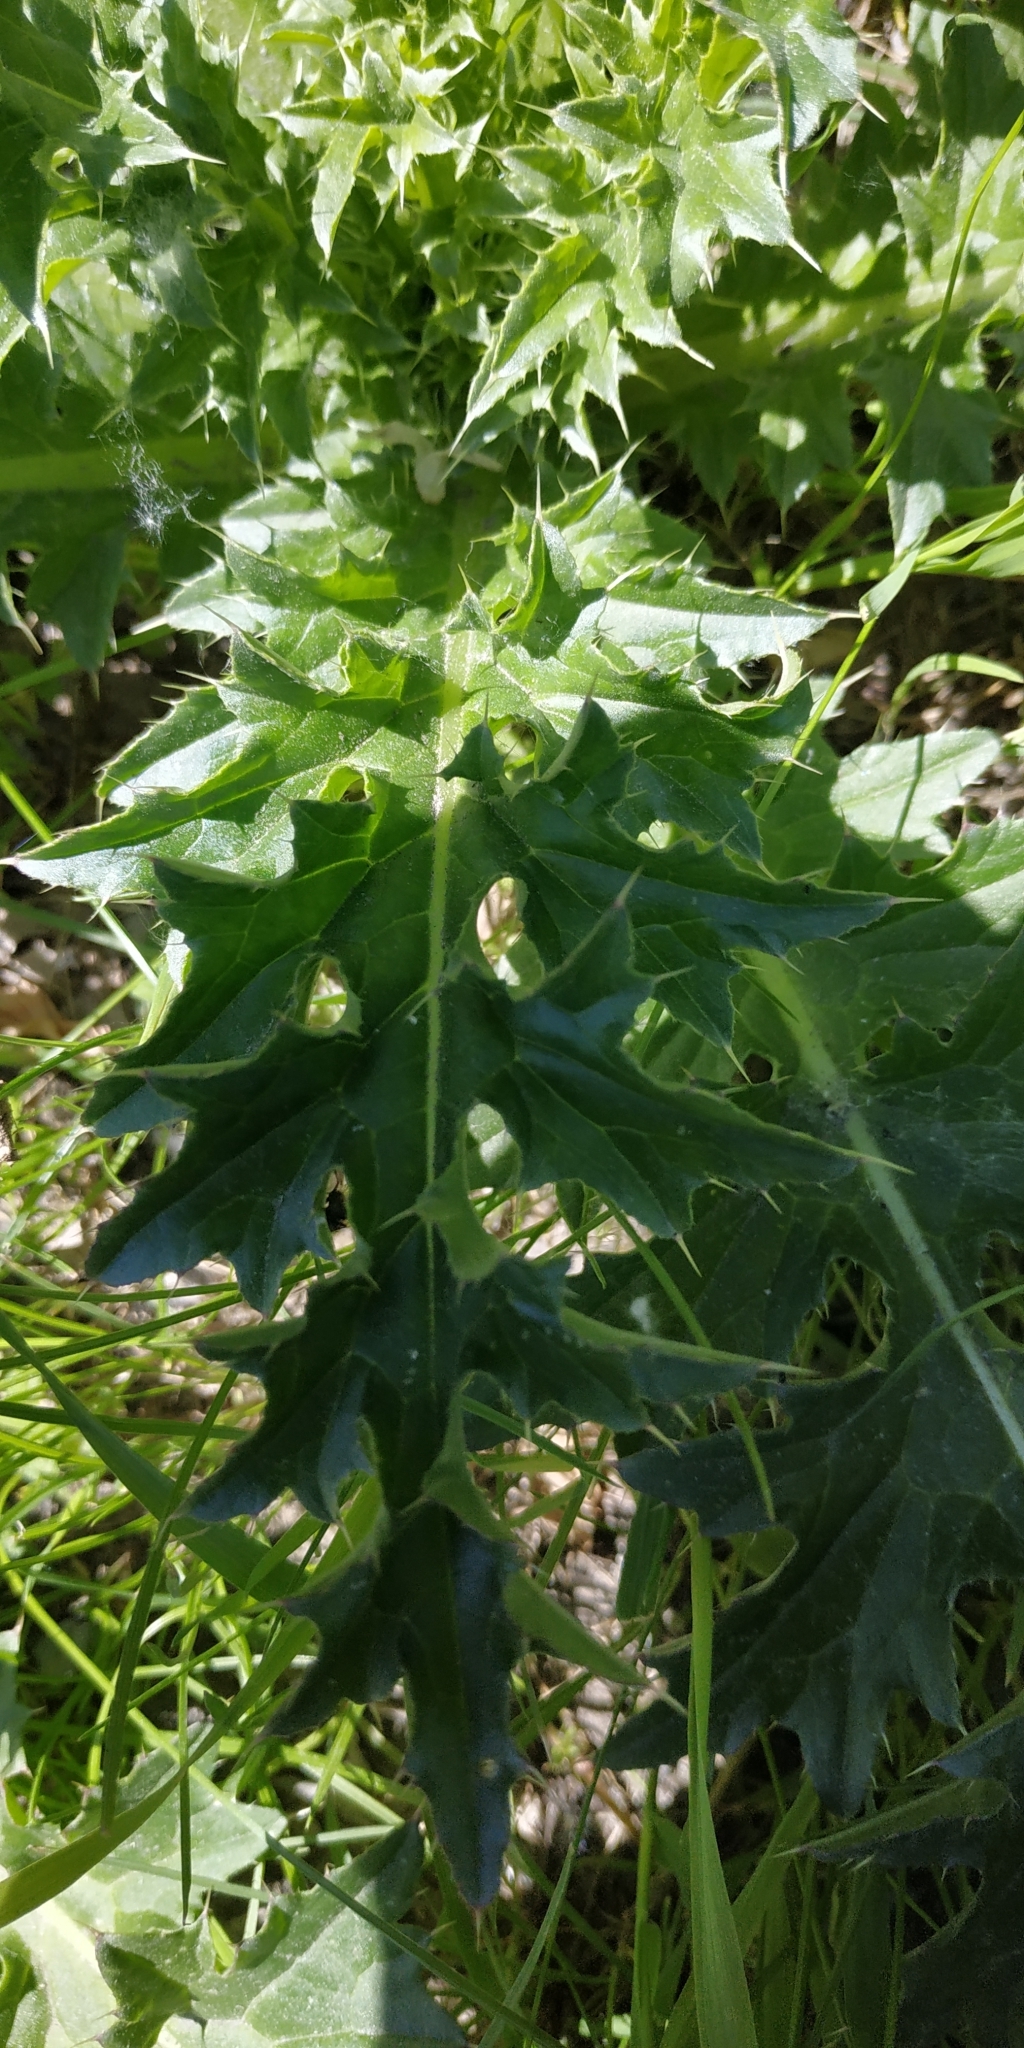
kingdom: Plantae
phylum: Tracheophyta
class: Magnoliopsida
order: Asterales
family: Asteraceae
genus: Carduus
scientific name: Carduus nutans
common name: Musk thistle
